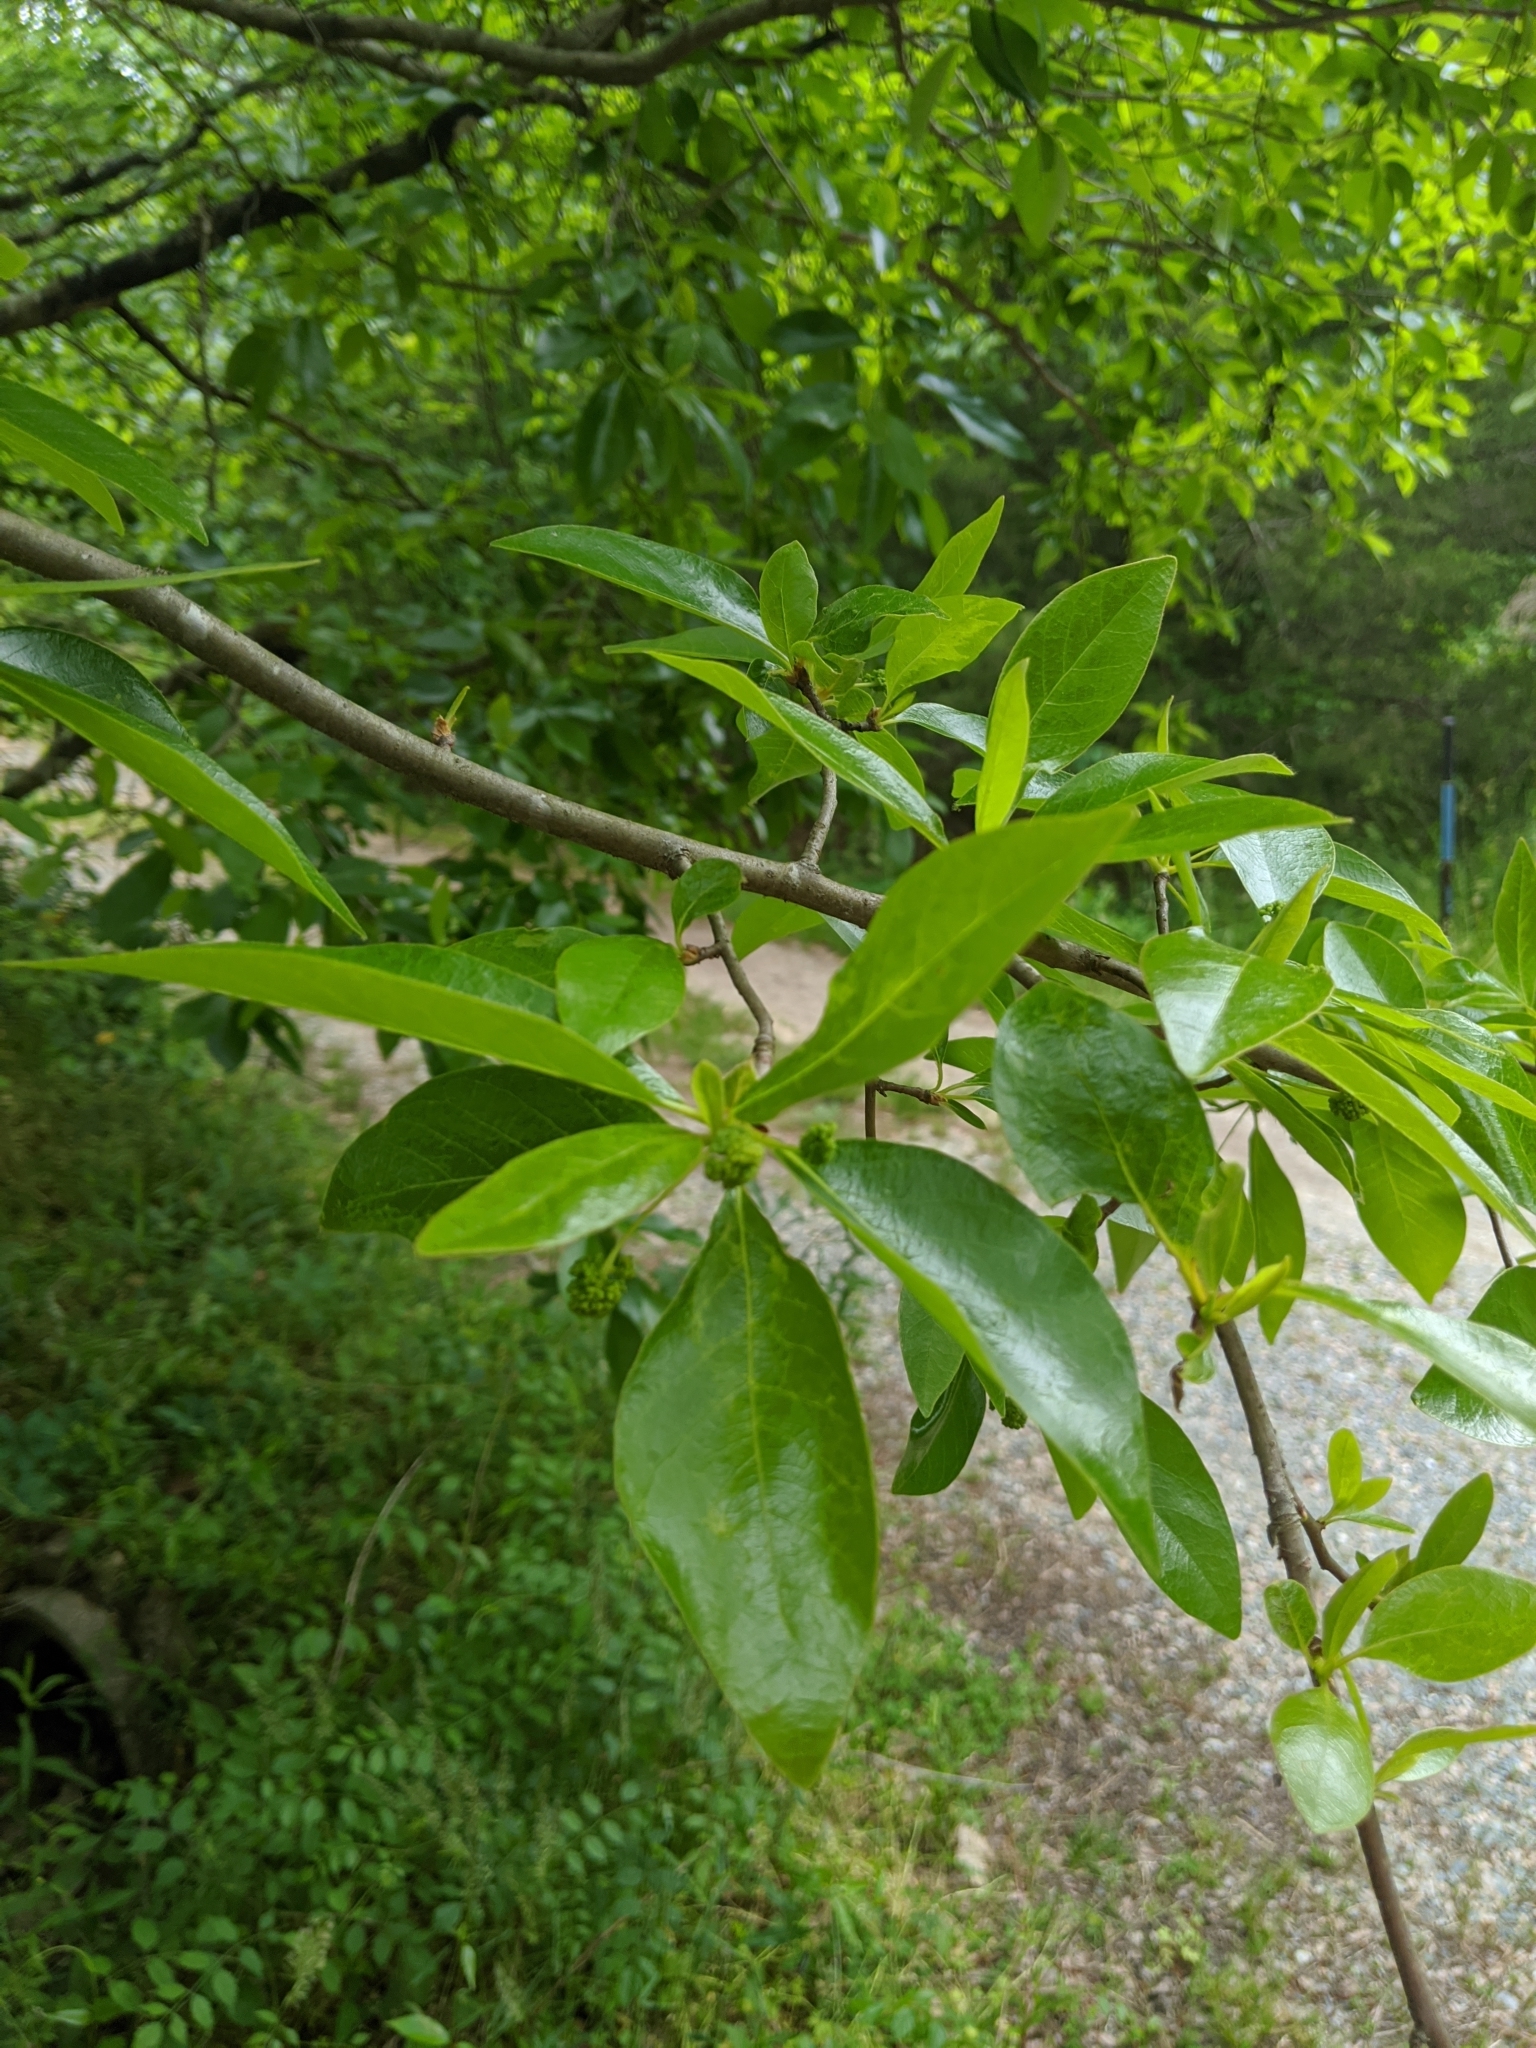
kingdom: Plantae
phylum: Tracheophyta
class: Magnoliopsida
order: Cornales
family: Nyssaceae
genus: Nyssa
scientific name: Nyssa sylvatica
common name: Black tupelo
